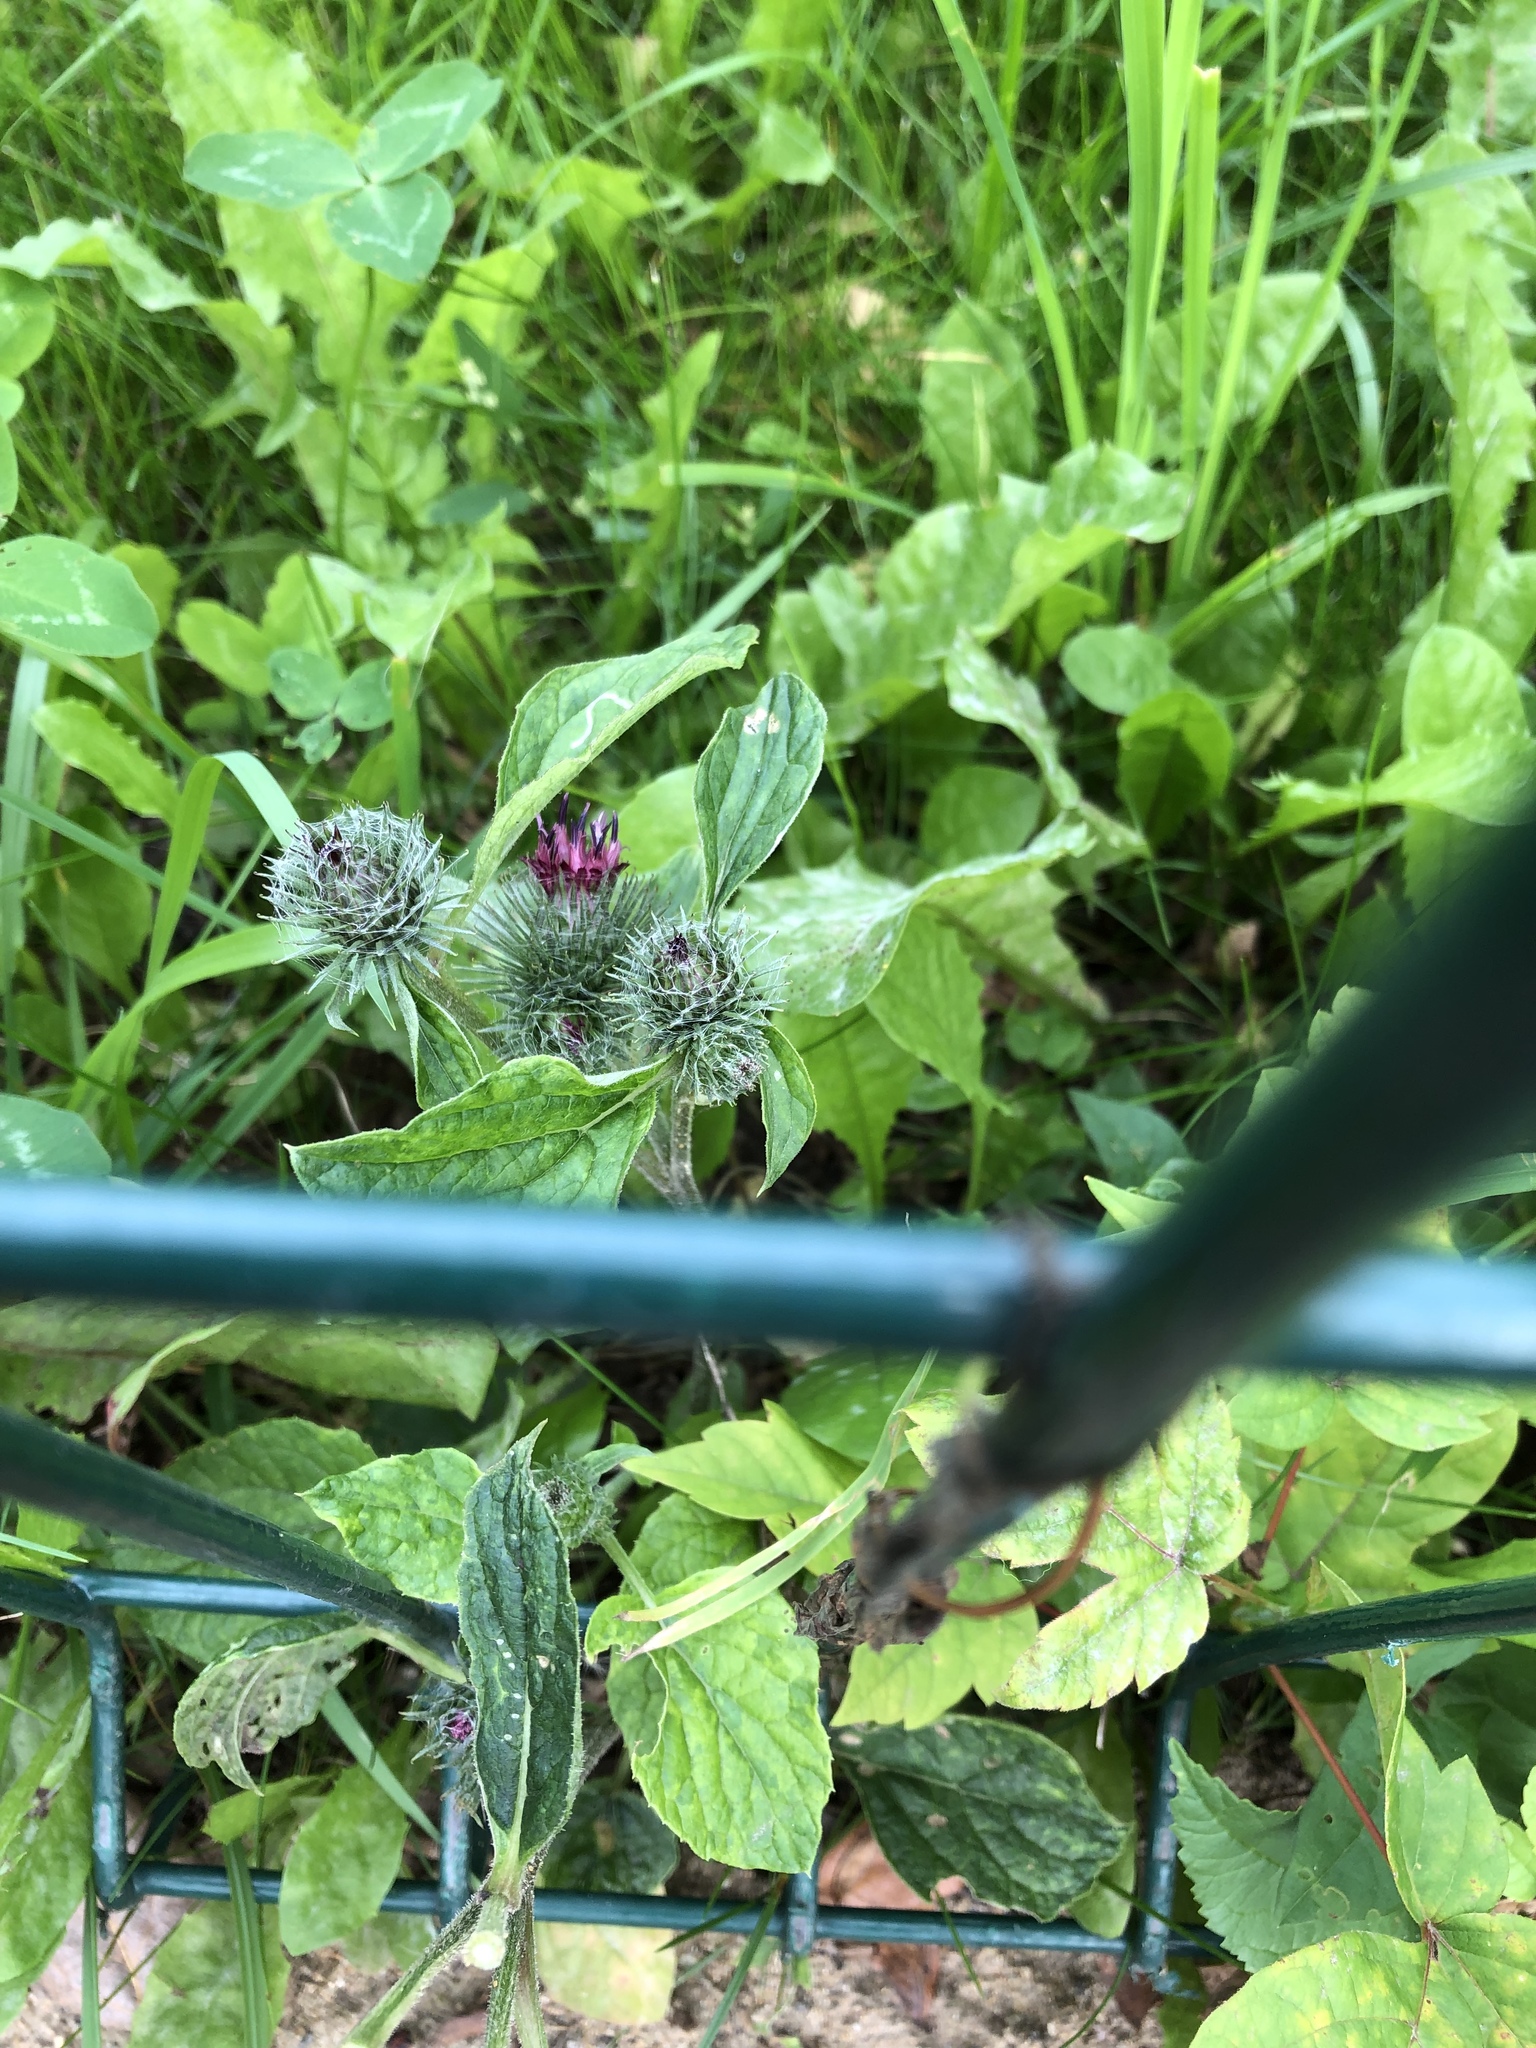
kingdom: Plantae
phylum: Tracheophyta
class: Magnoliopsida
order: Asterales
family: Asteraceae
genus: Arctium
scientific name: Arctium tomentosum
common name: Woolly burdock
